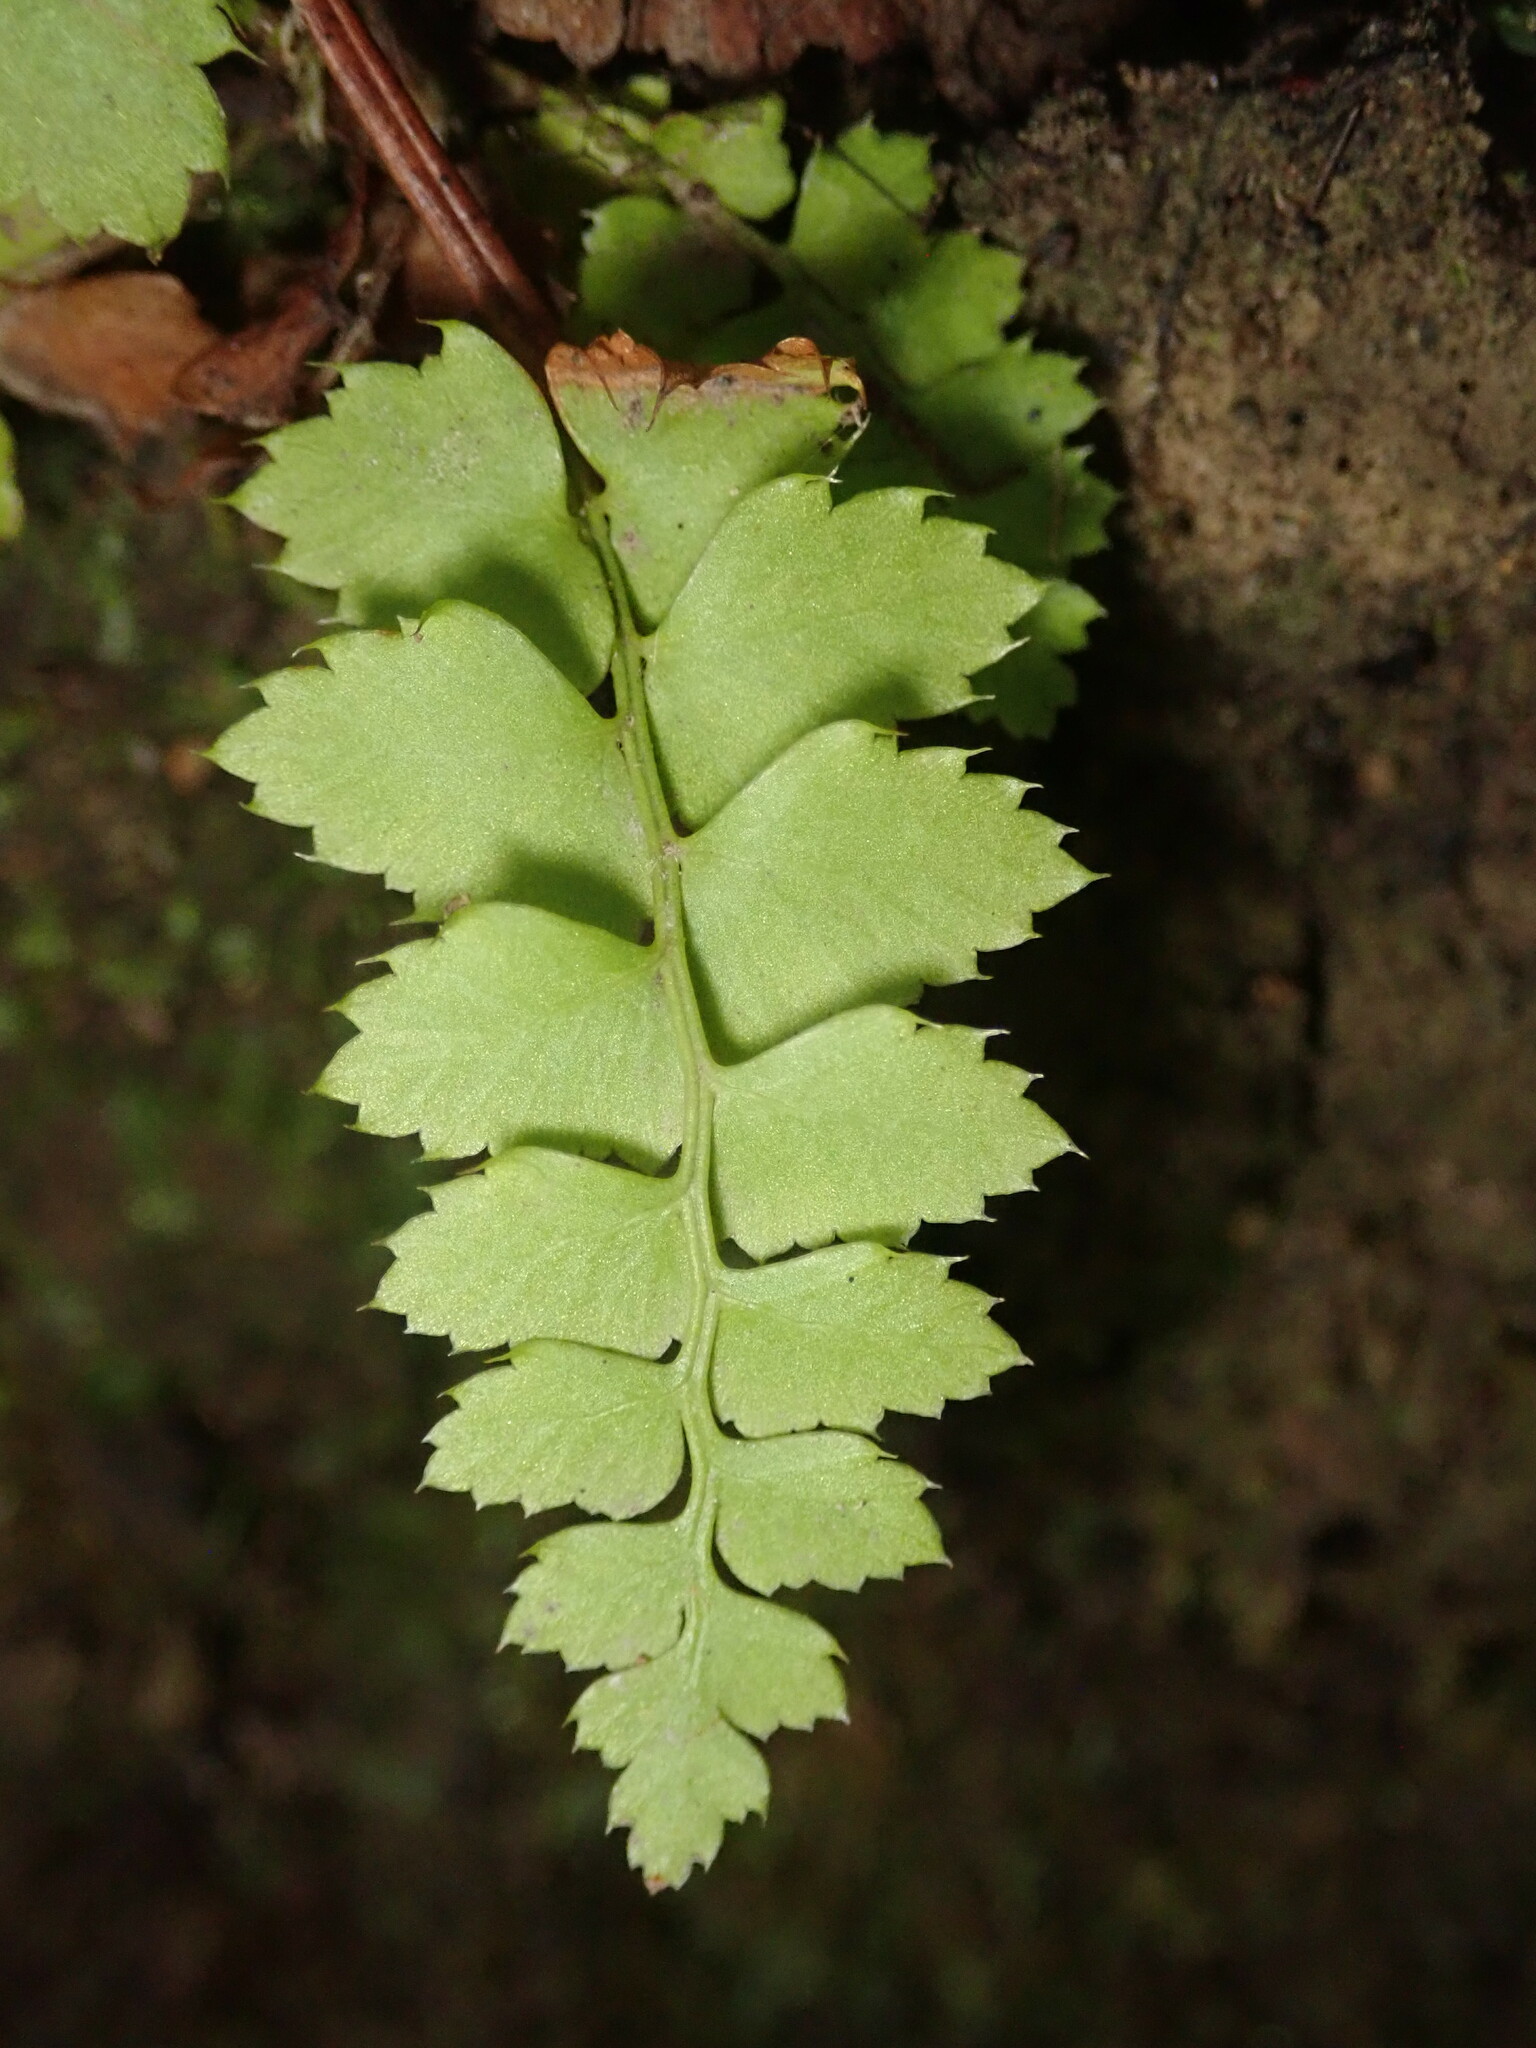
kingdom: Plantae
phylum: Tracheophyta
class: Polypodiopsida
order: Polypodiales
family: Dryopteridaceae
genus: Polystichum
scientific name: Polystichum munitum
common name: Western sword-fern
